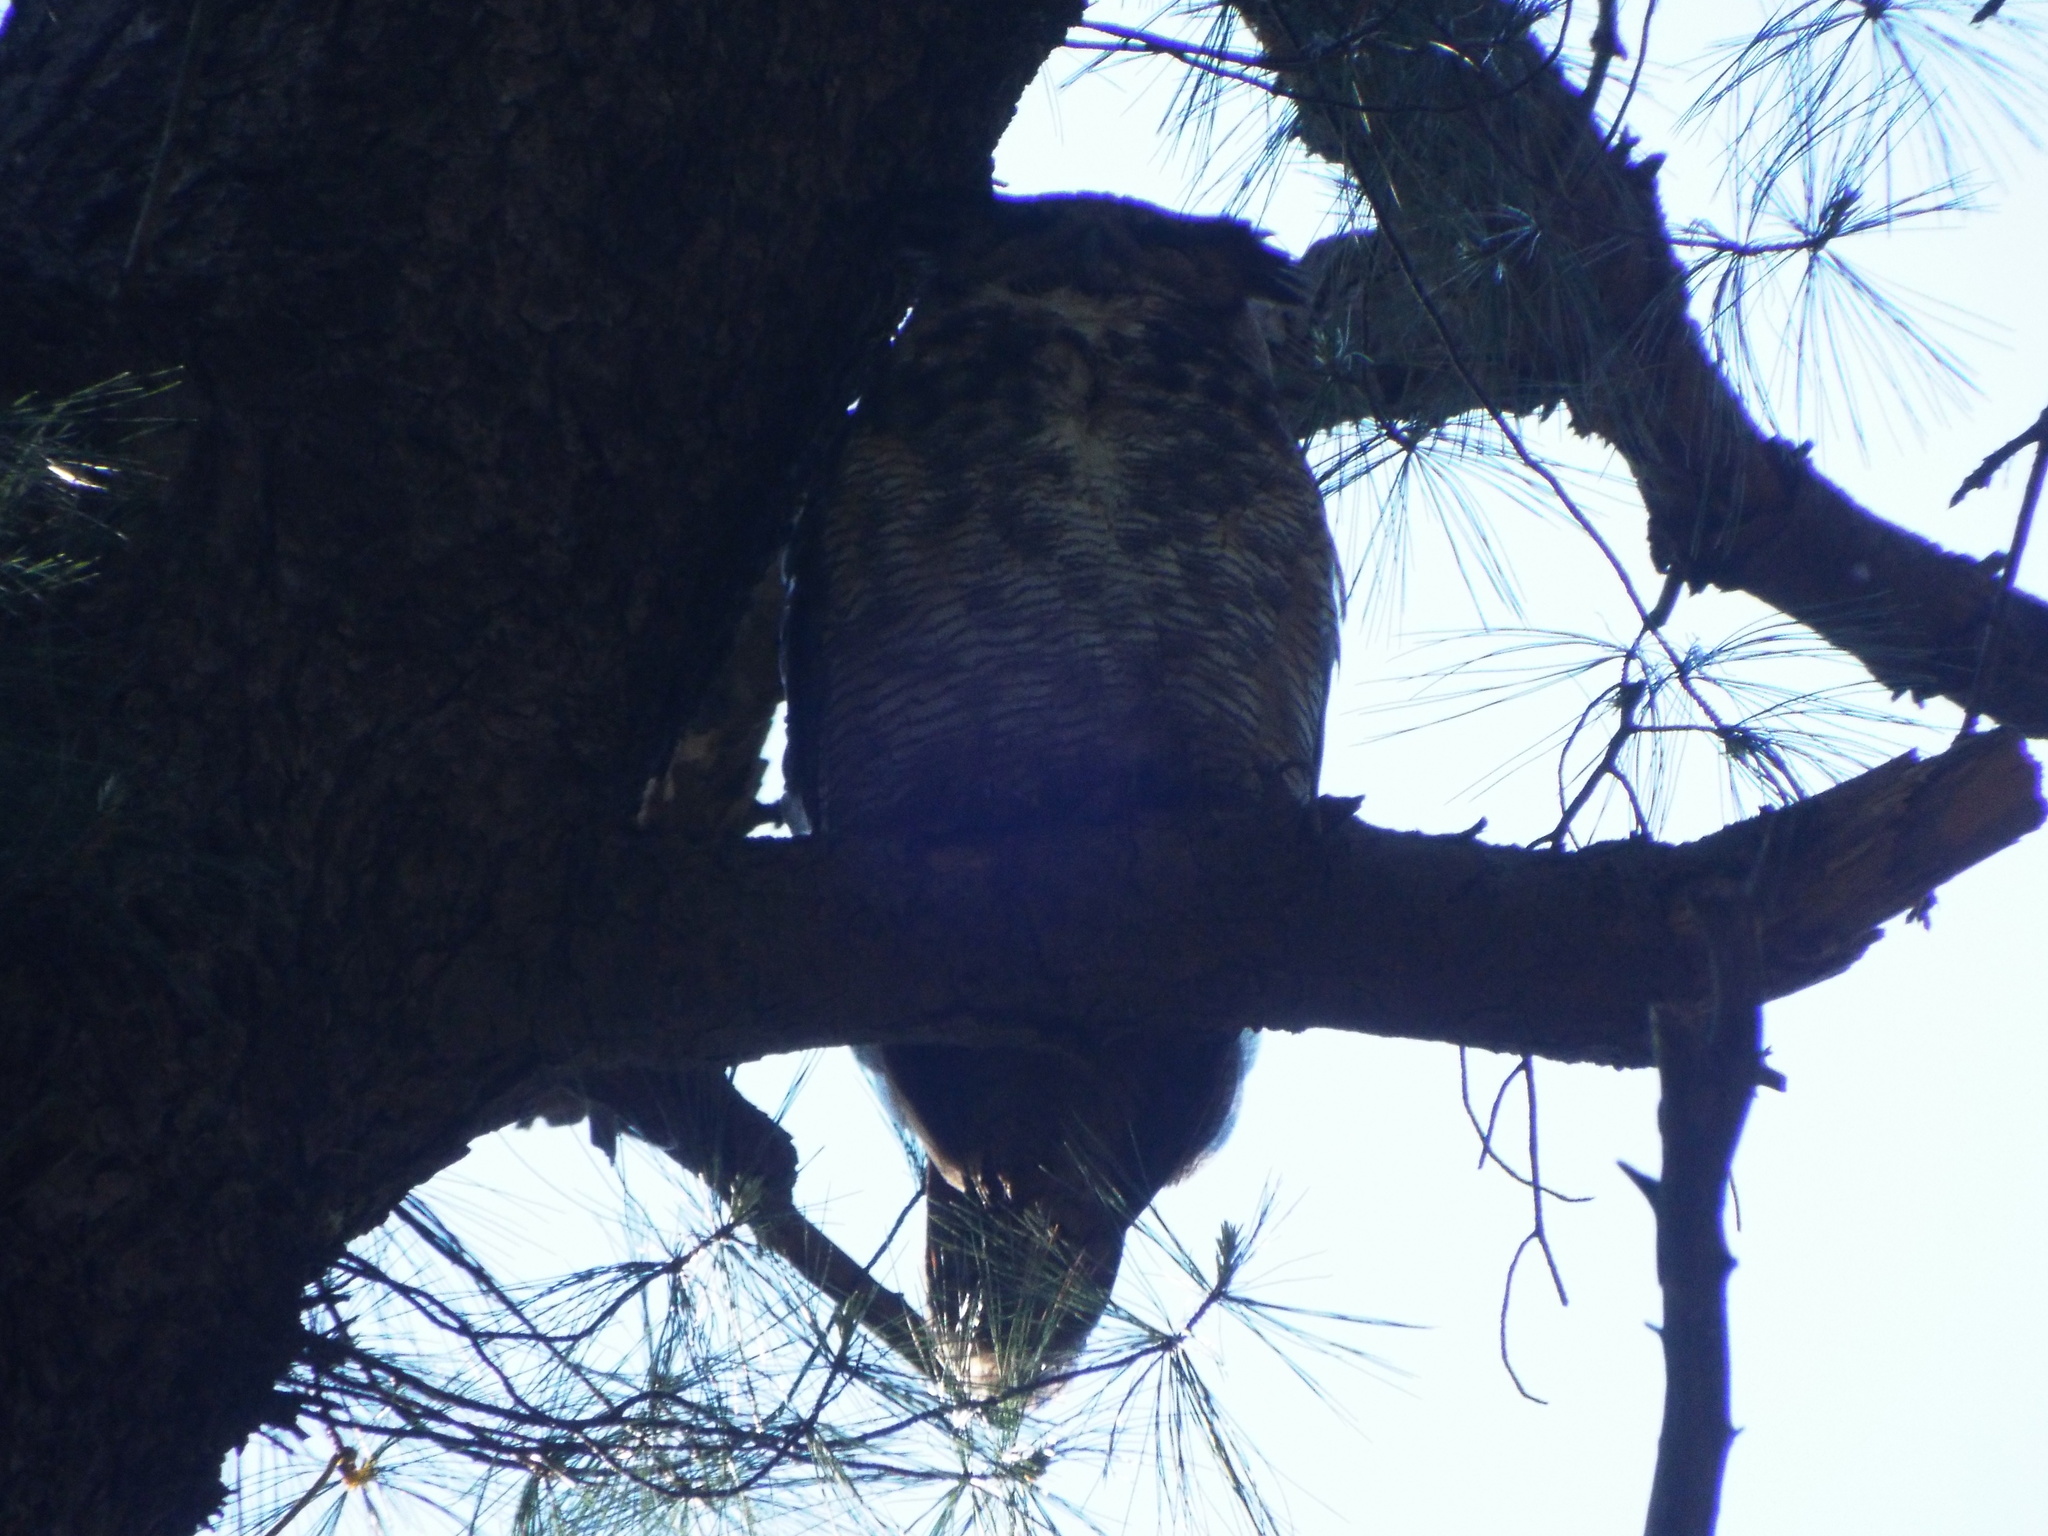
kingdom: Animalia
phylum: Chordata
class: Aves
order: Strigiformes
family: Strigidae
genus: Bubo
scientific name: Bubo virginianus
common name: Great horned owl
